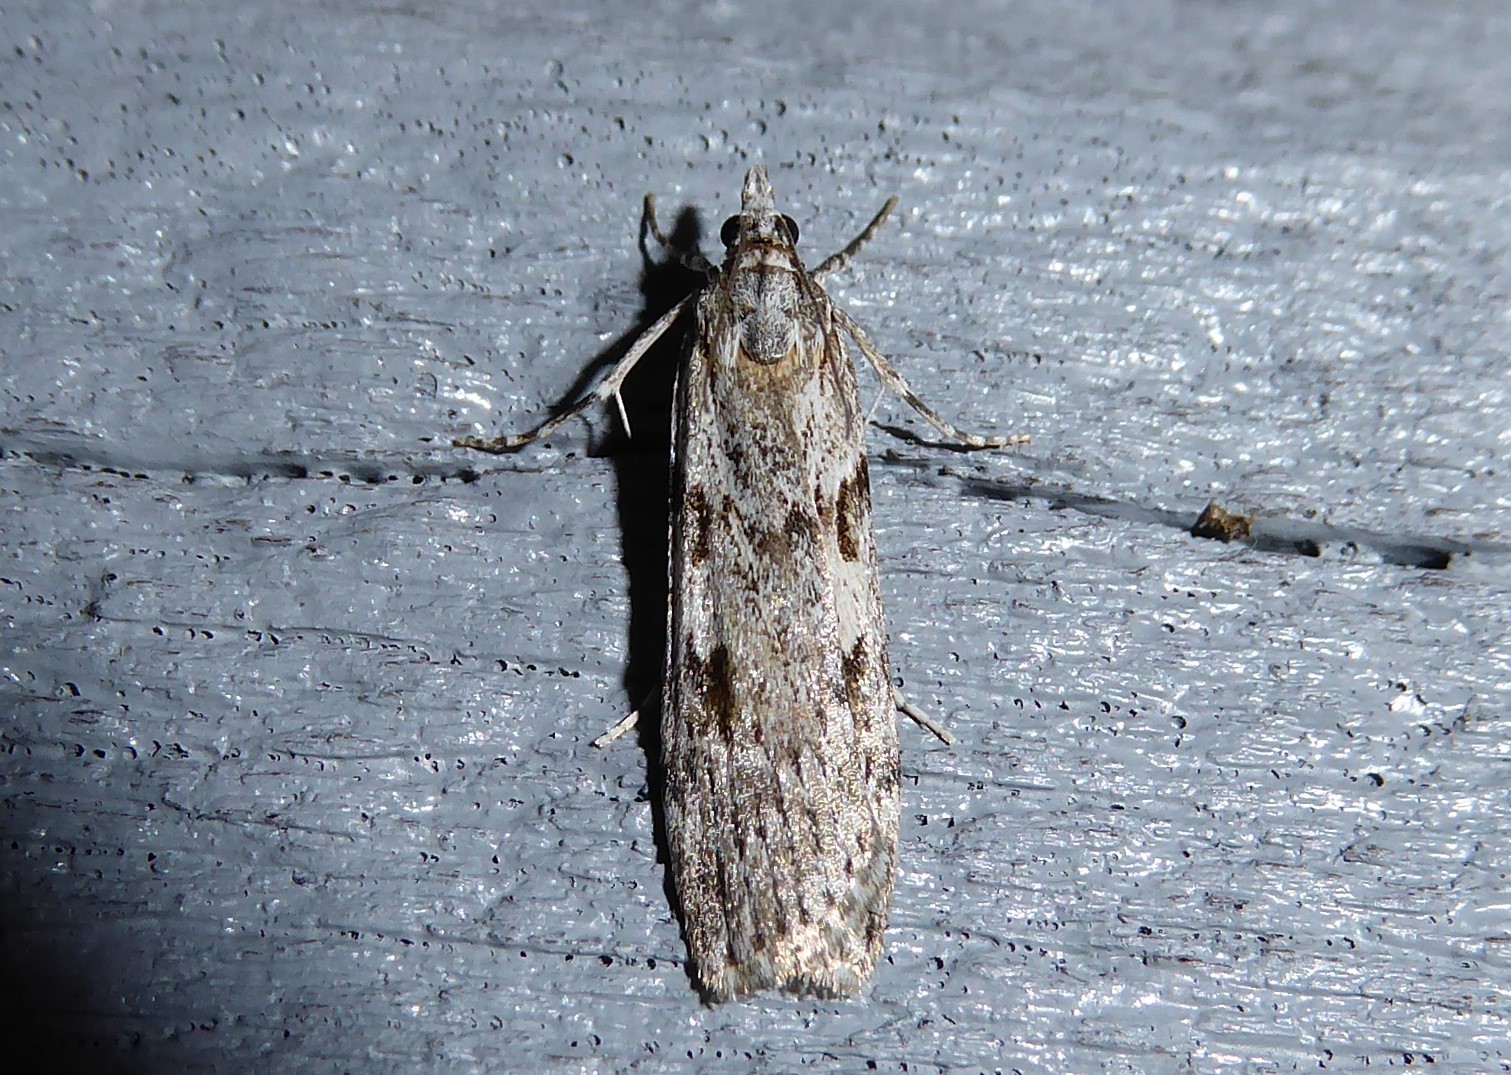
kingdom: Animalia
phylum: Arthropoda
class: Insecta
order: Lepidoptera
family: Crambidae
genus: Scoparia
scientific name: Scoparia halopis
